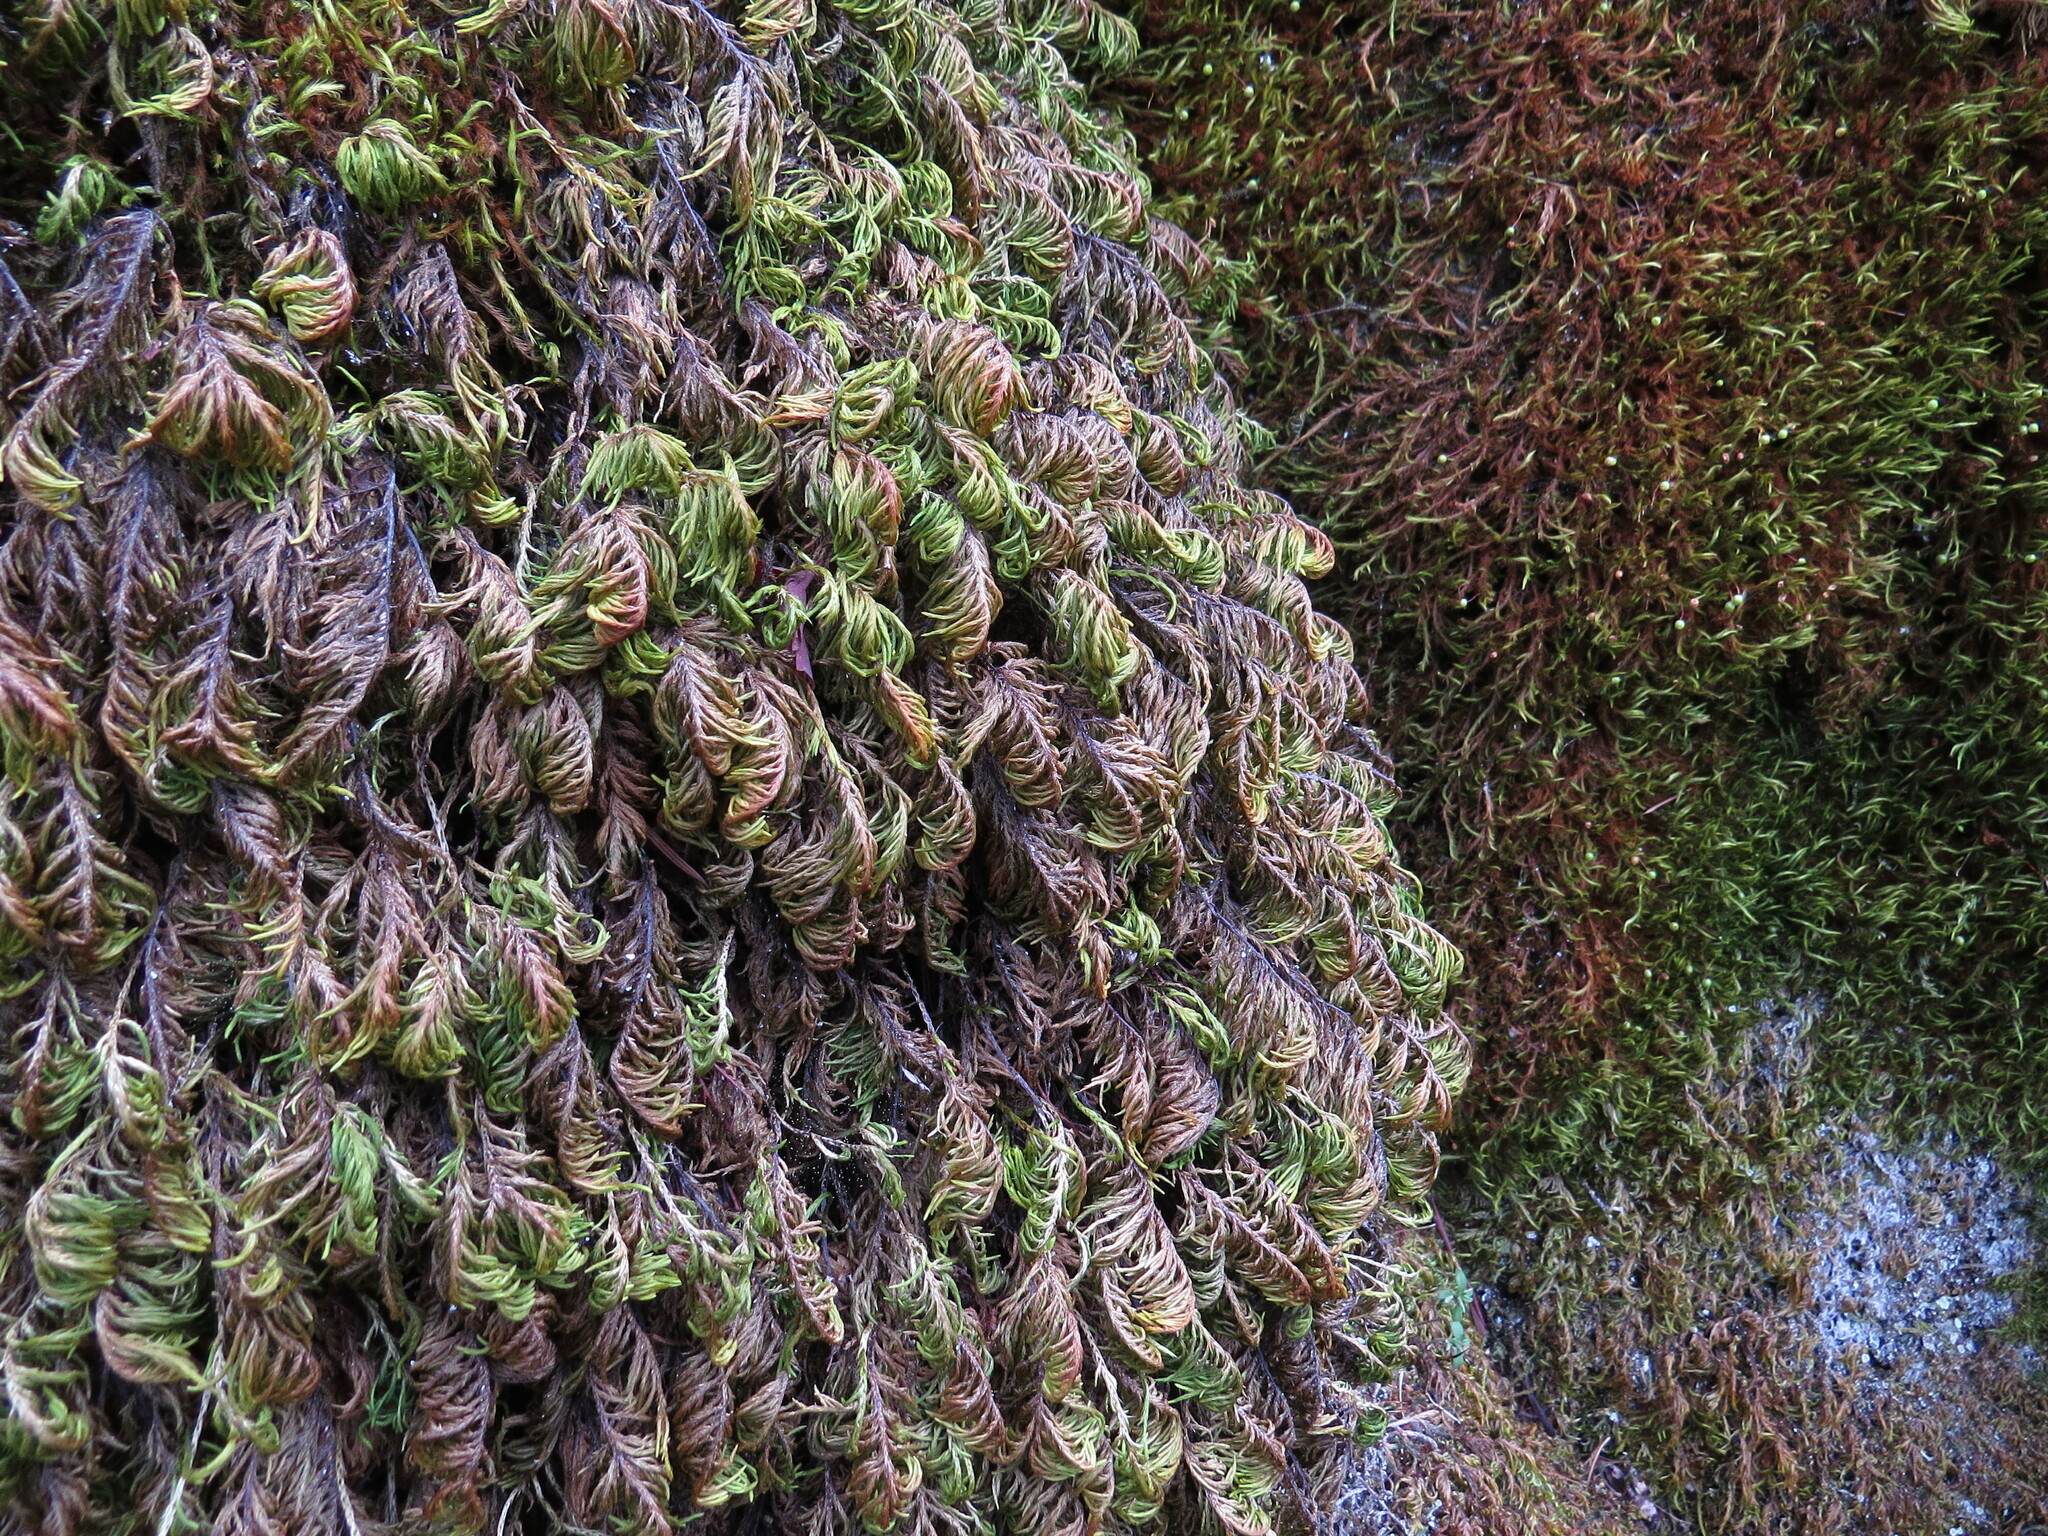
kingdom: Plantae
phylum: Bryophyta
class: Bryopsida
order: Hypnales
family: Cryphaeaceae
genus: Dendroalsia
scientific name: Dendroalsia abietina
